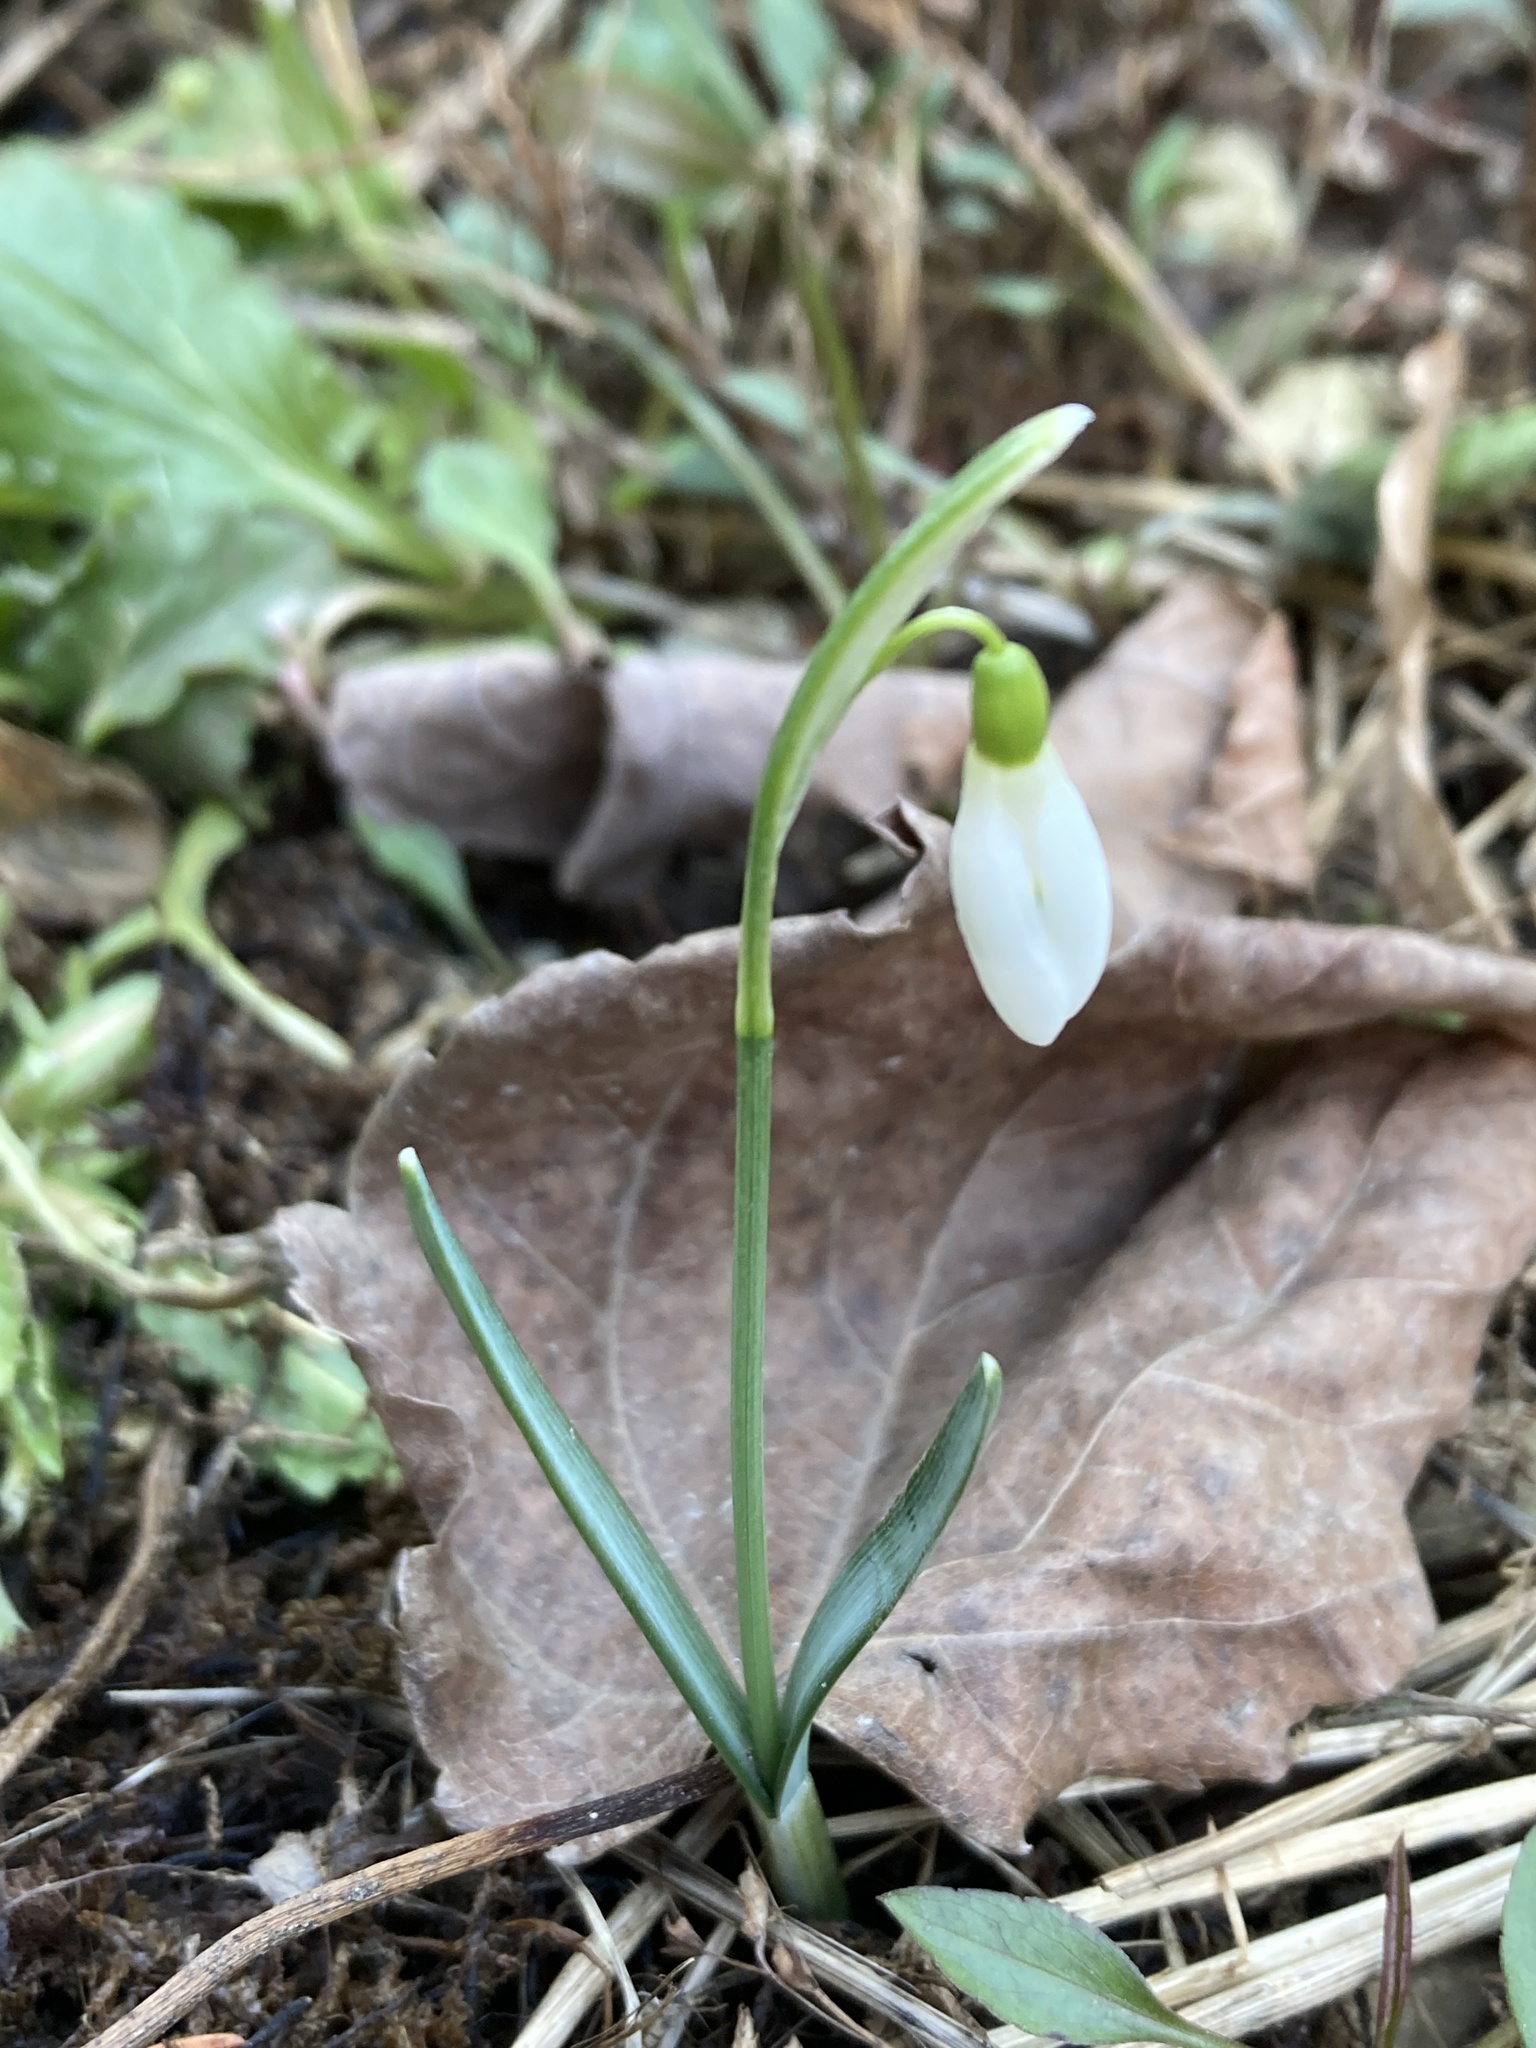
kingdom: Plantae
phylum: Tracheophyta
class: Liliopsida
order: Asparagales
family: Amaryllidaceae
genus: Galanthus
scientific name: Galanthus nivalis
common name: Snowdrop
